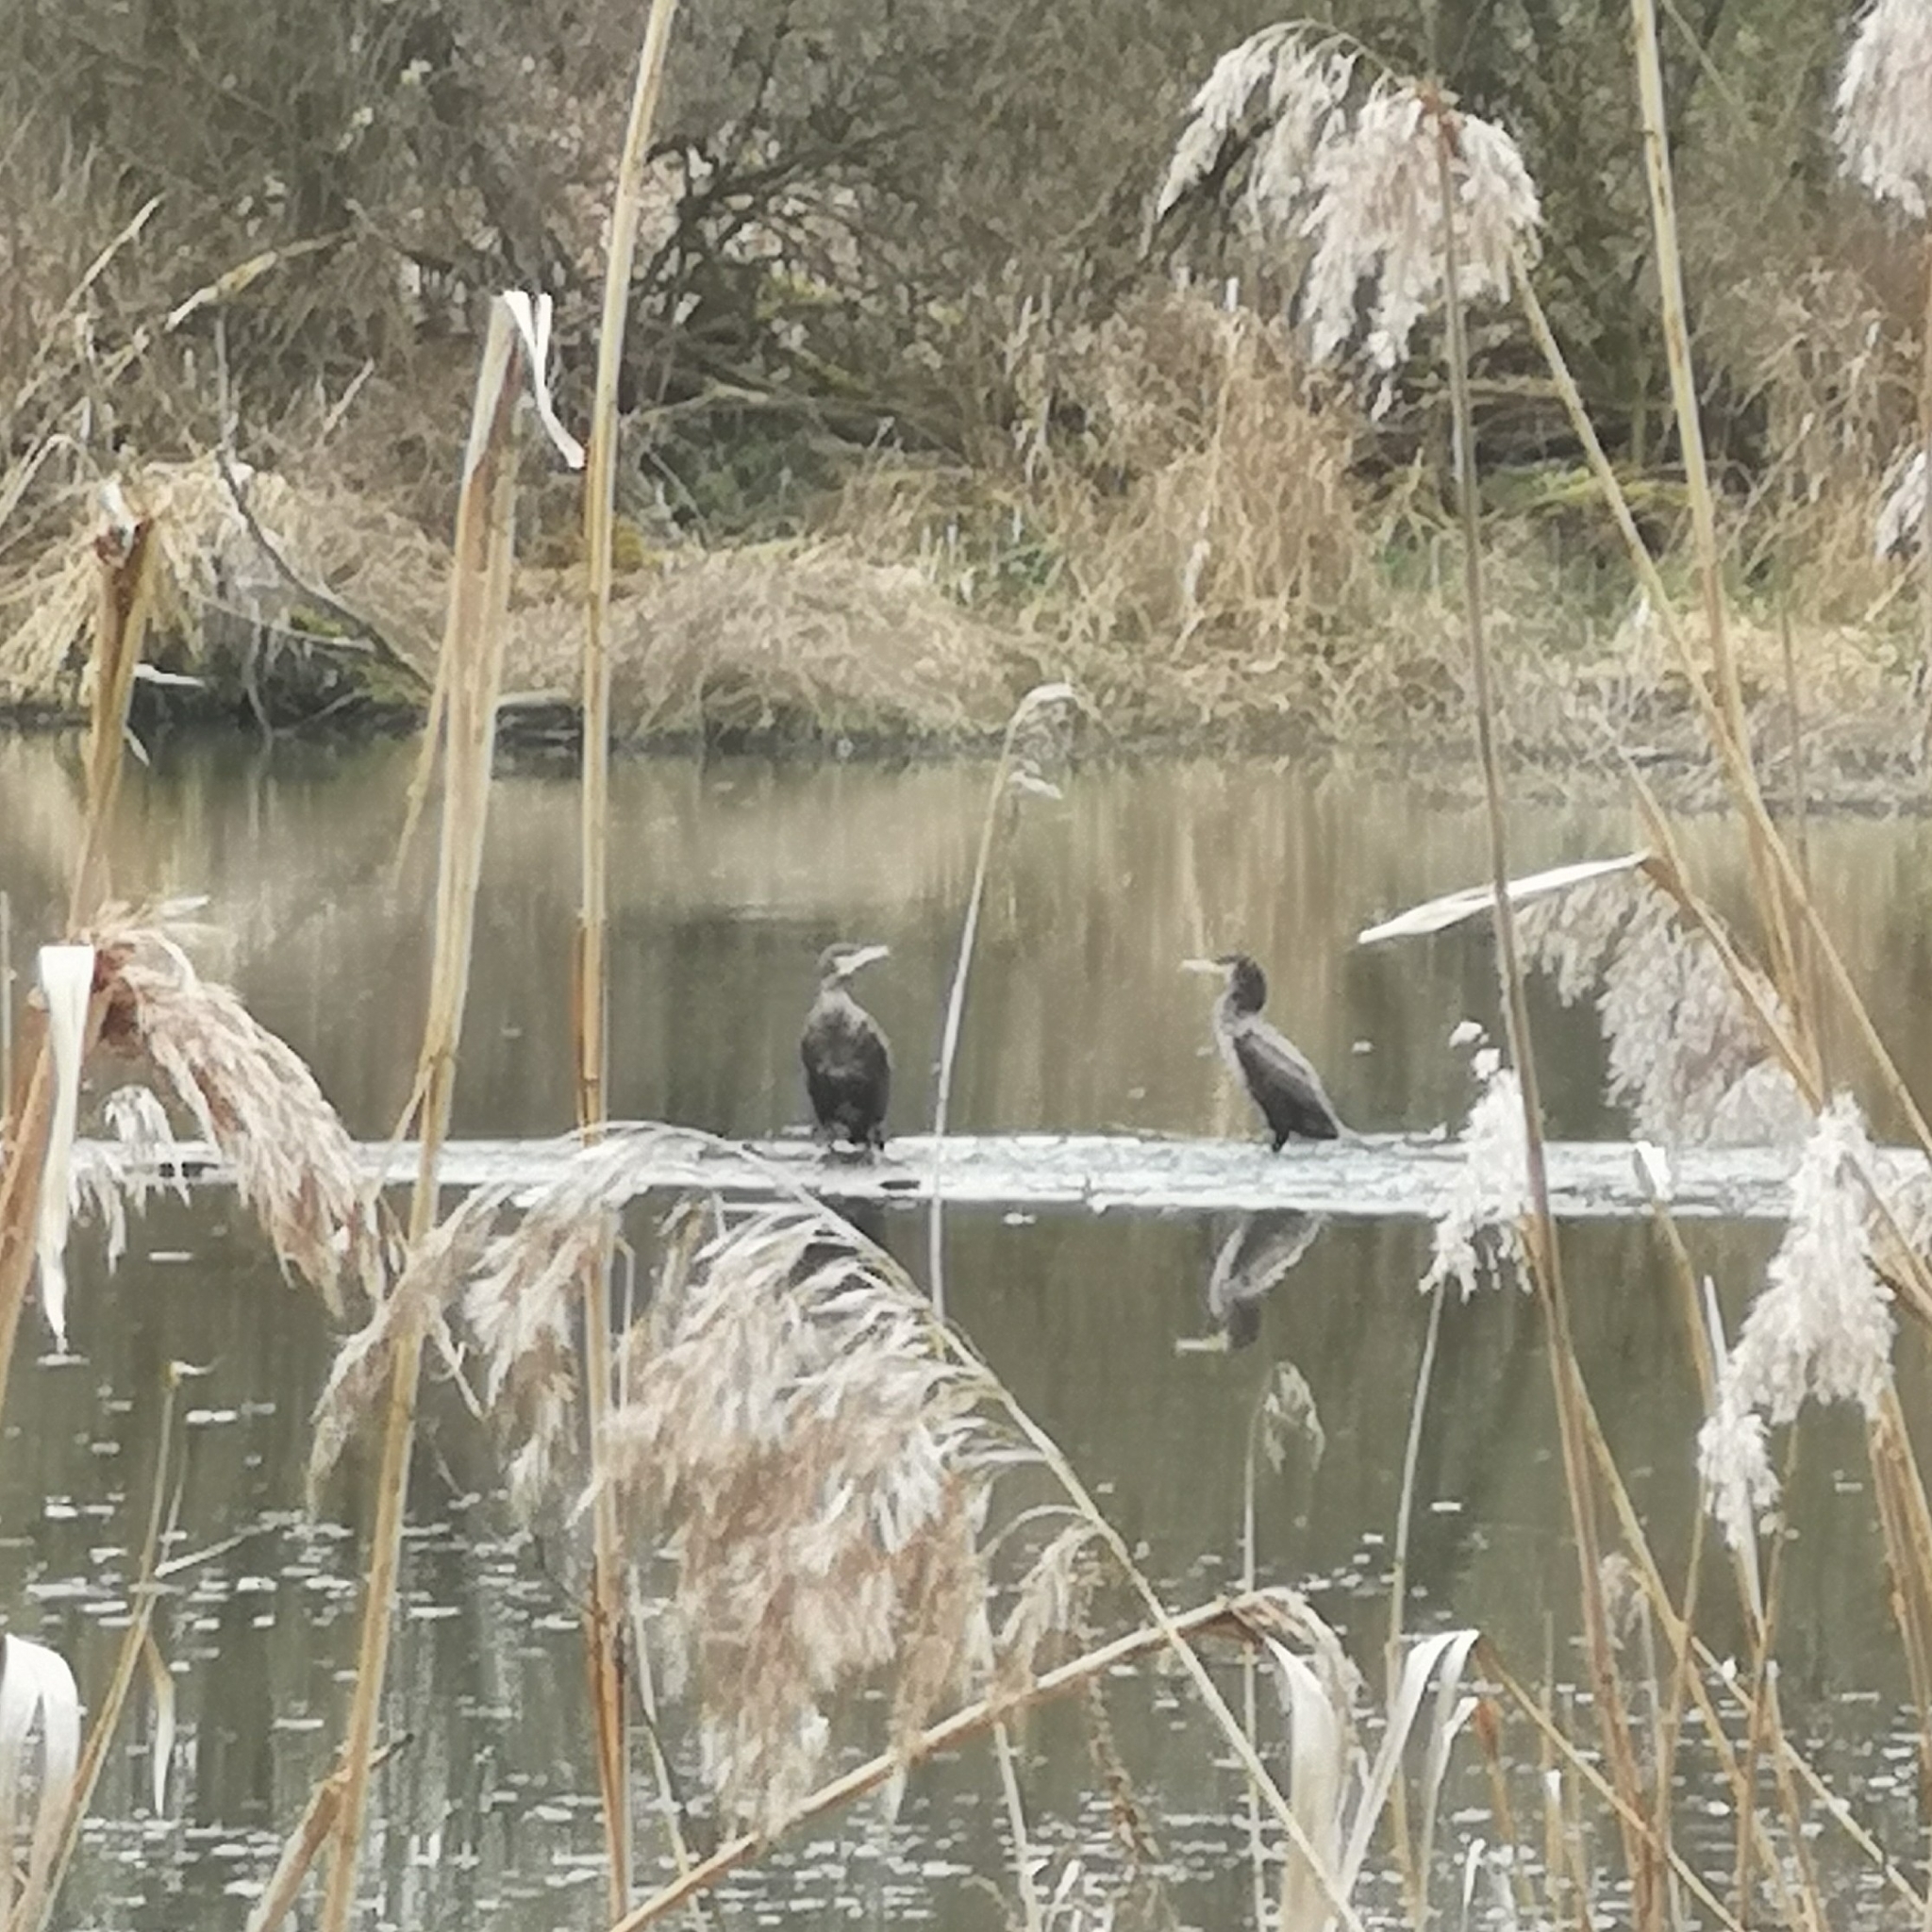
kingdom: Animalia
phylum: Chordata
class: Aves
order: Suliformes
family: Phalacrocoracidae
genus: Phalacrocorax
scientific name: Phalacrocorax carbo
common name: Great cormorant
